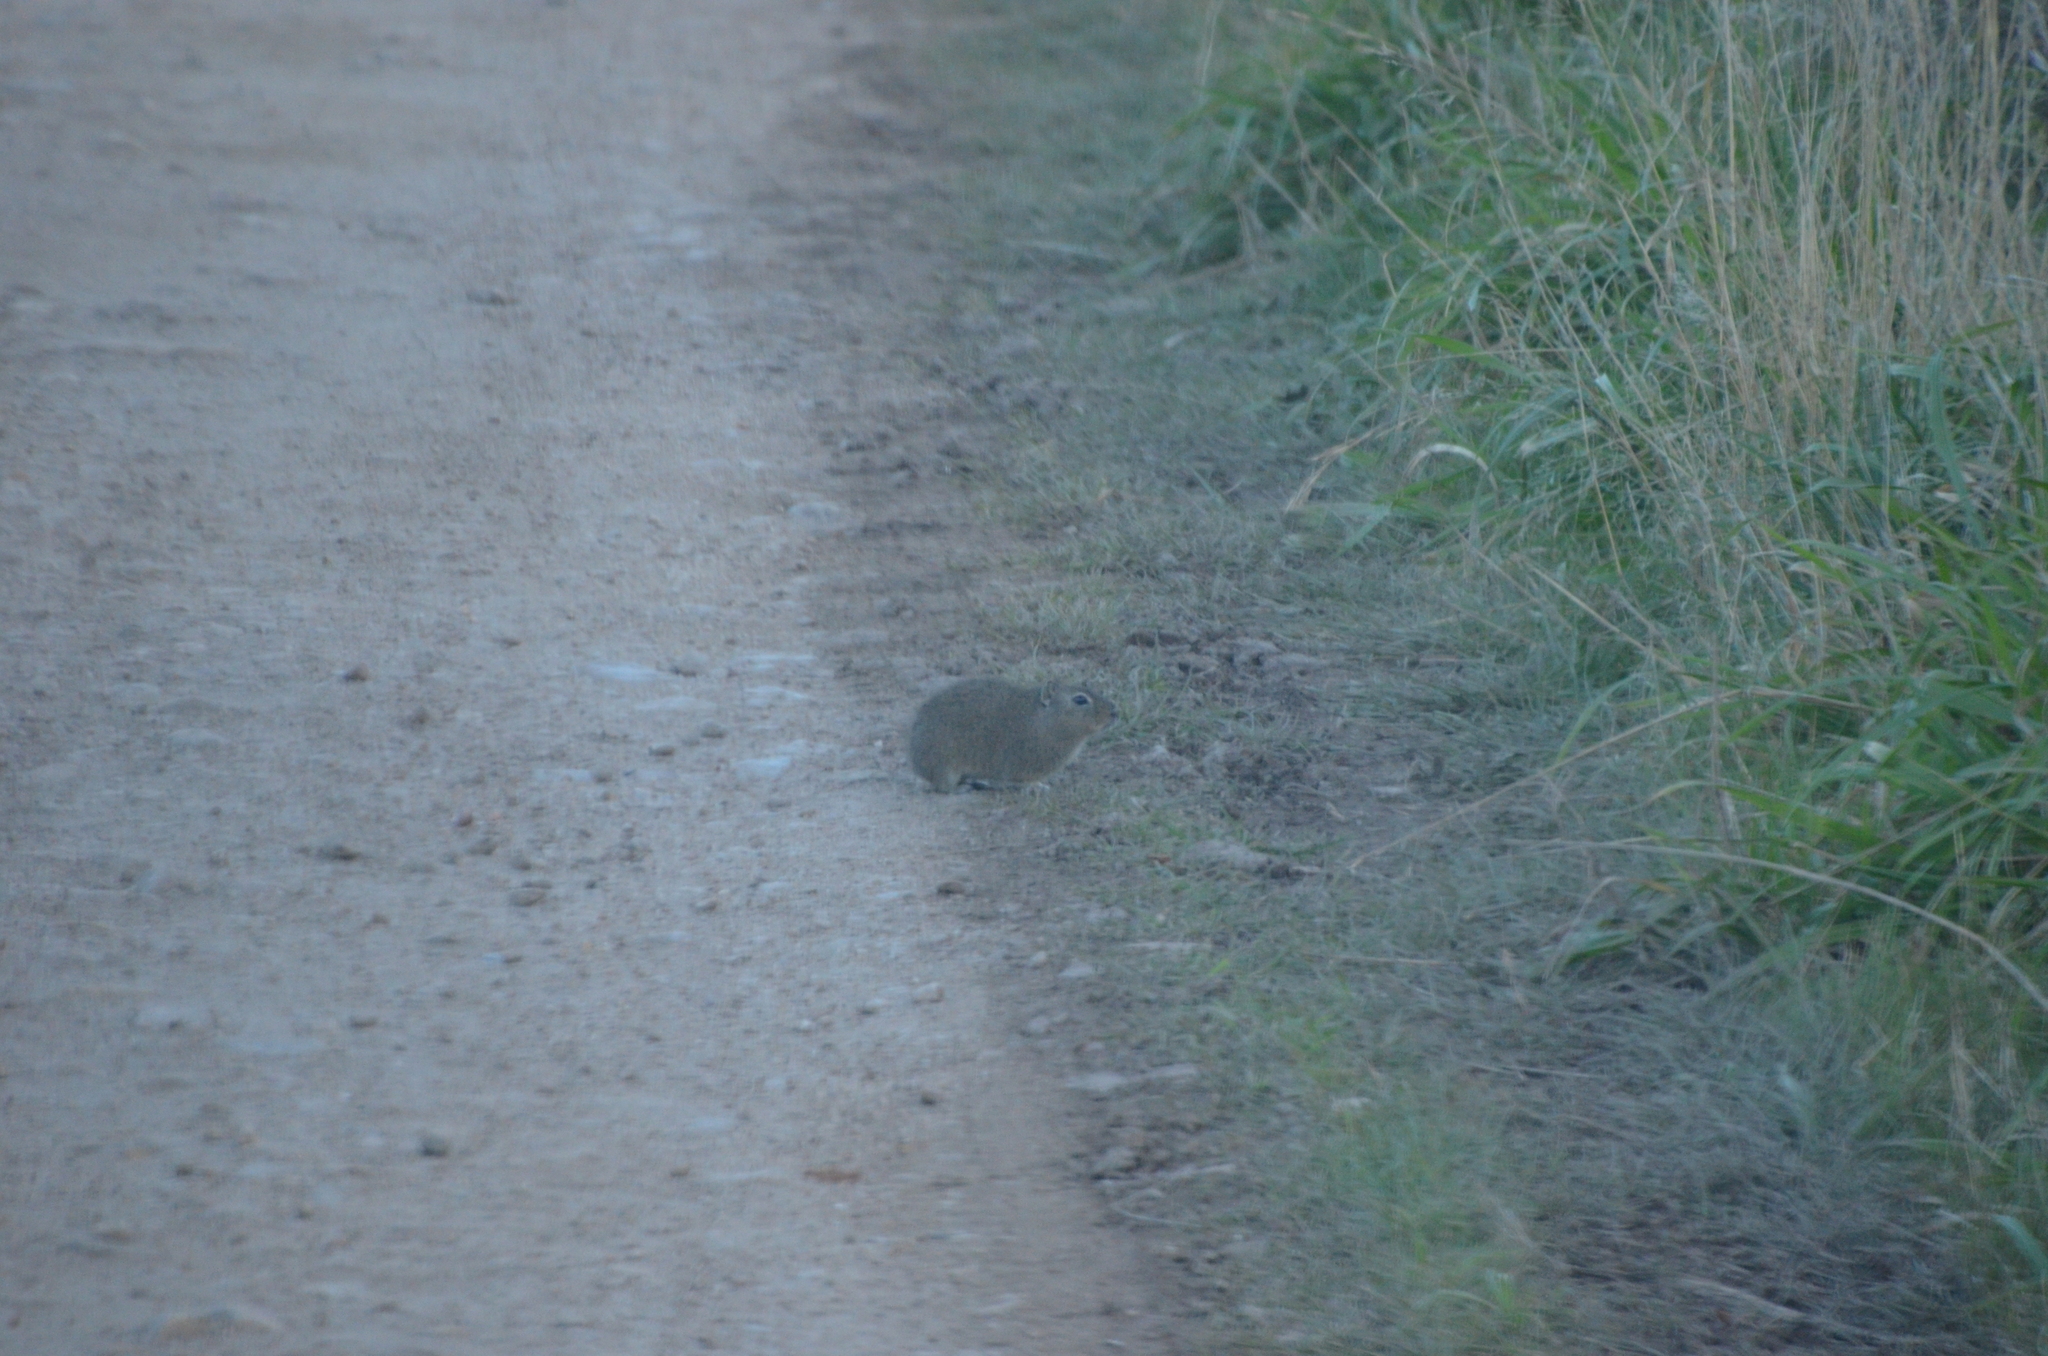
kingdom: Animalia
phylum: Chordata
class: Mammalia
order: Rodentia
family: Caviidae
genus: Cavia
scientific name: Cavia aperea
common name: Brazilian guinea pig
